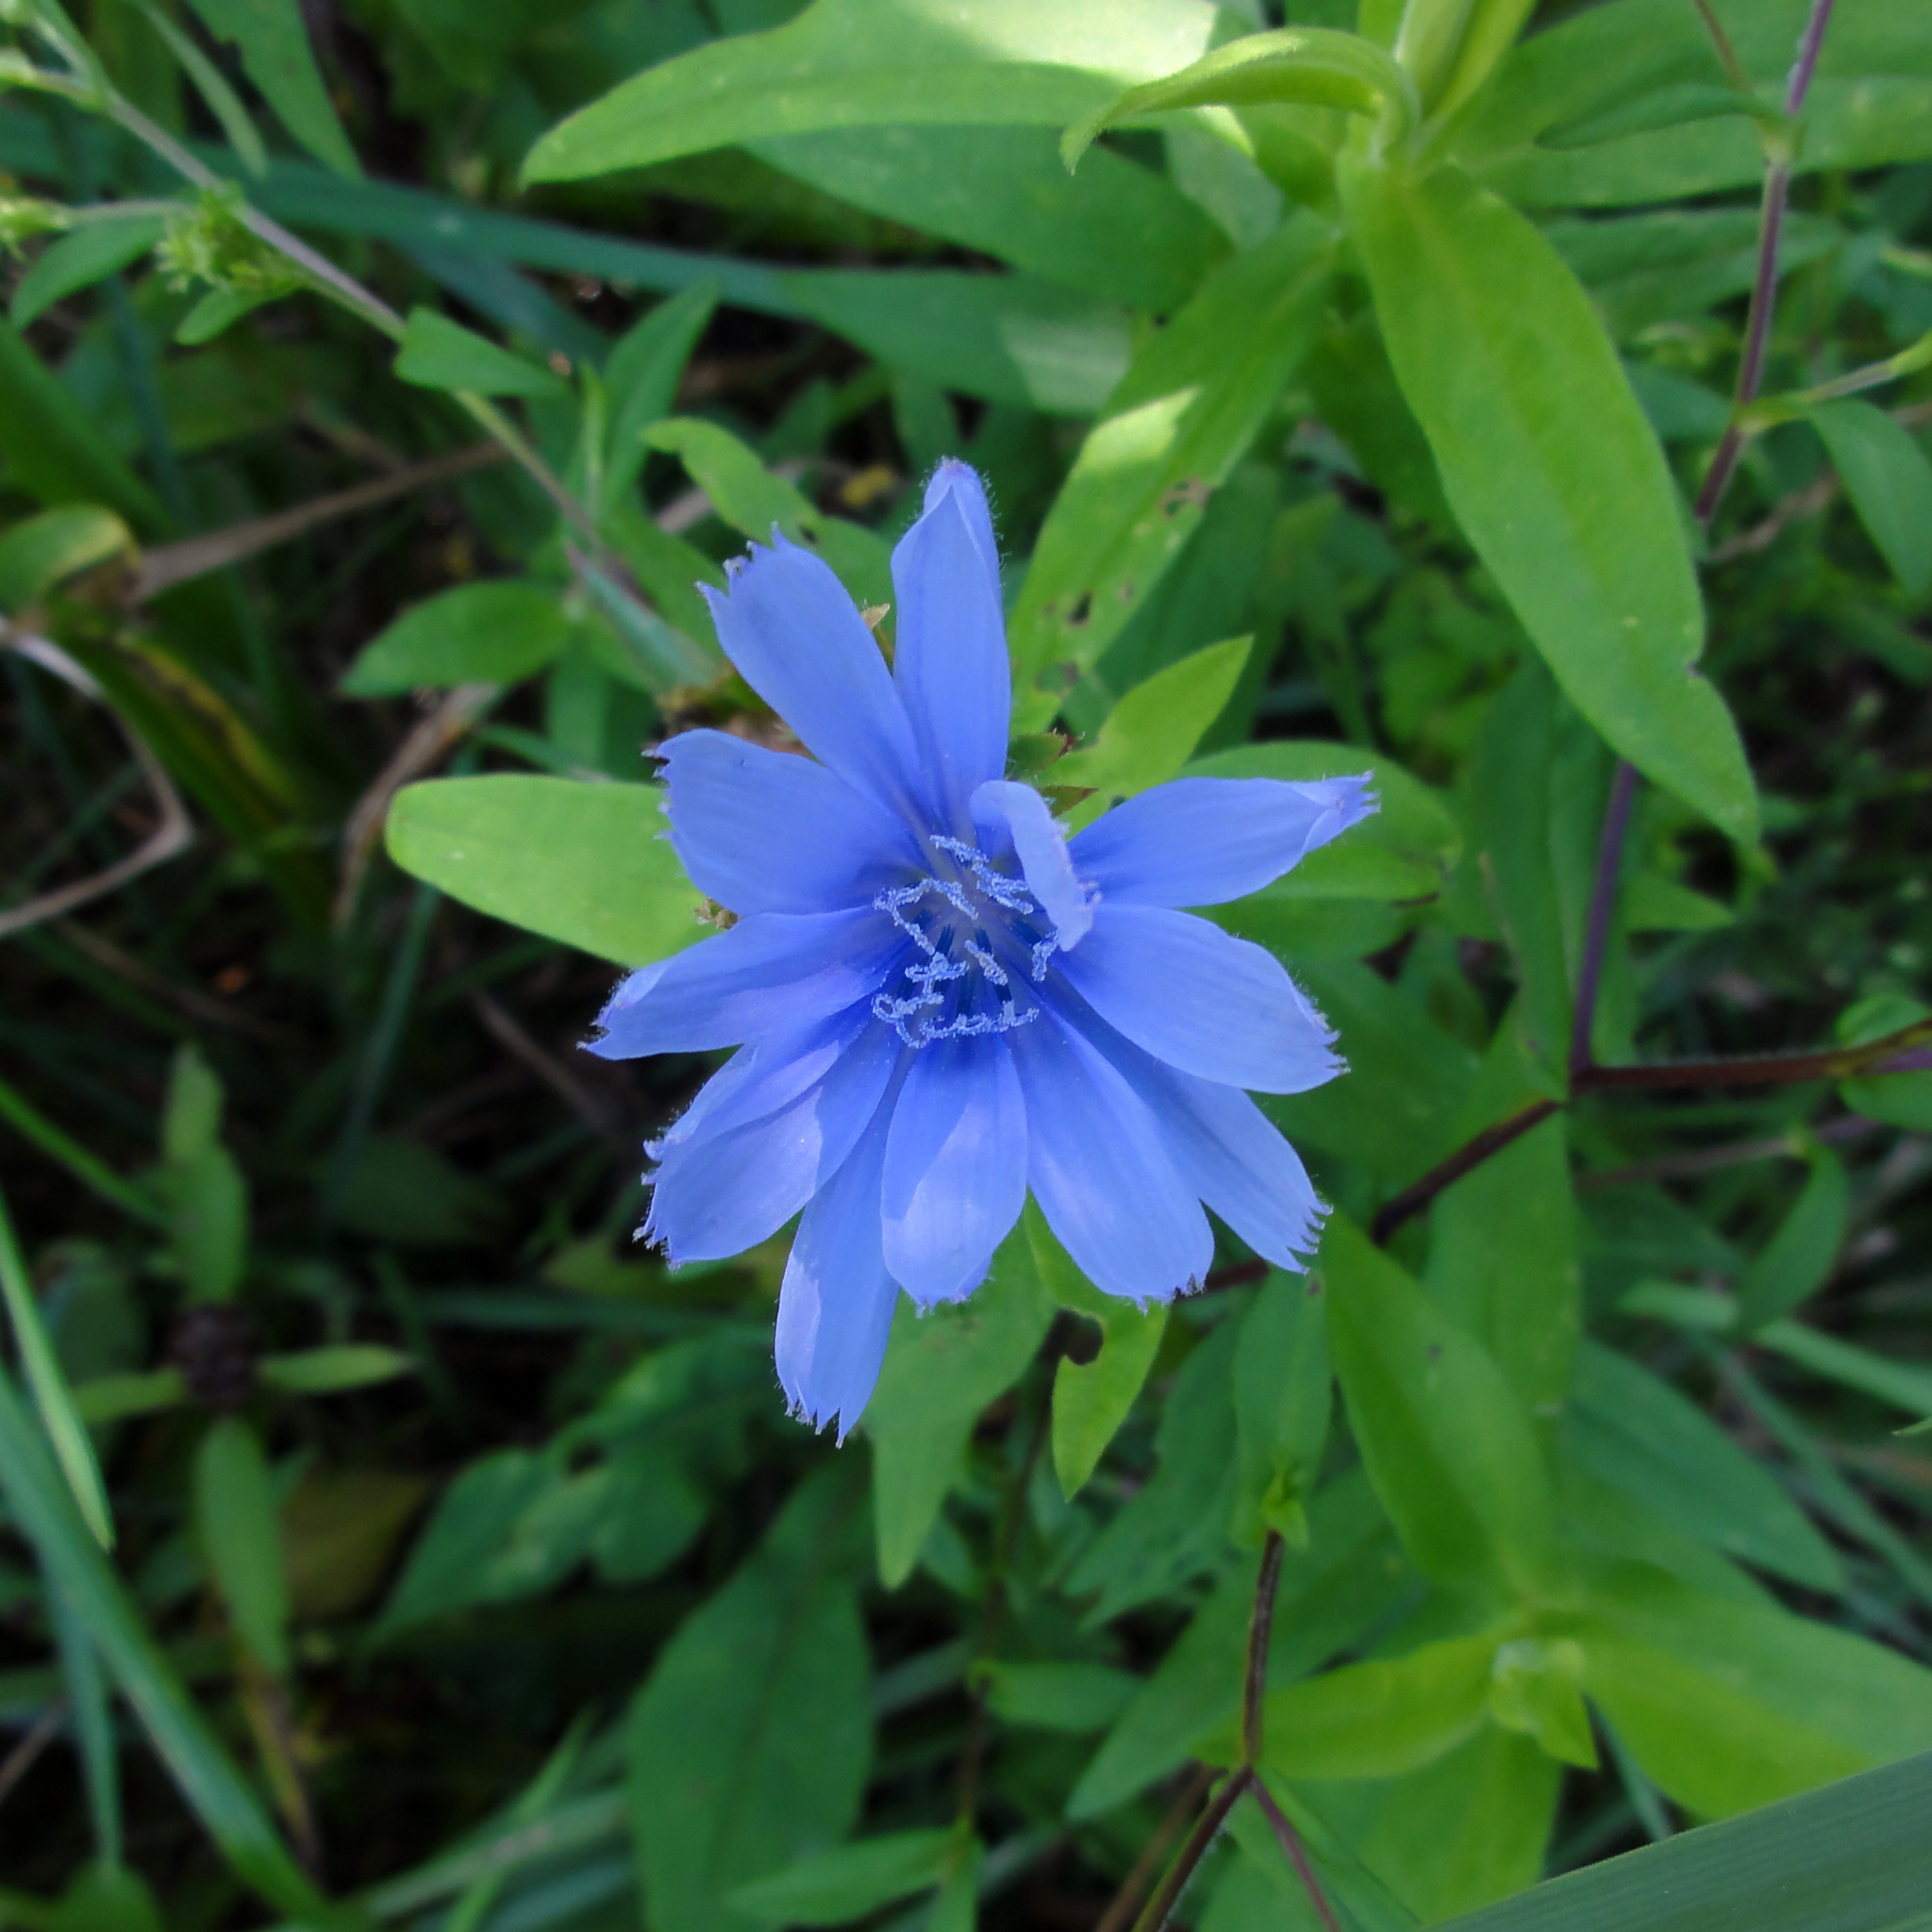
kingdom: Plantae
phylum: Tracheophyta
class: Magnoliopsida
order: Asterales
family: Asteraceae
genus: Cichorium
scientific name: Cichorium intybus
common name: Chicory
